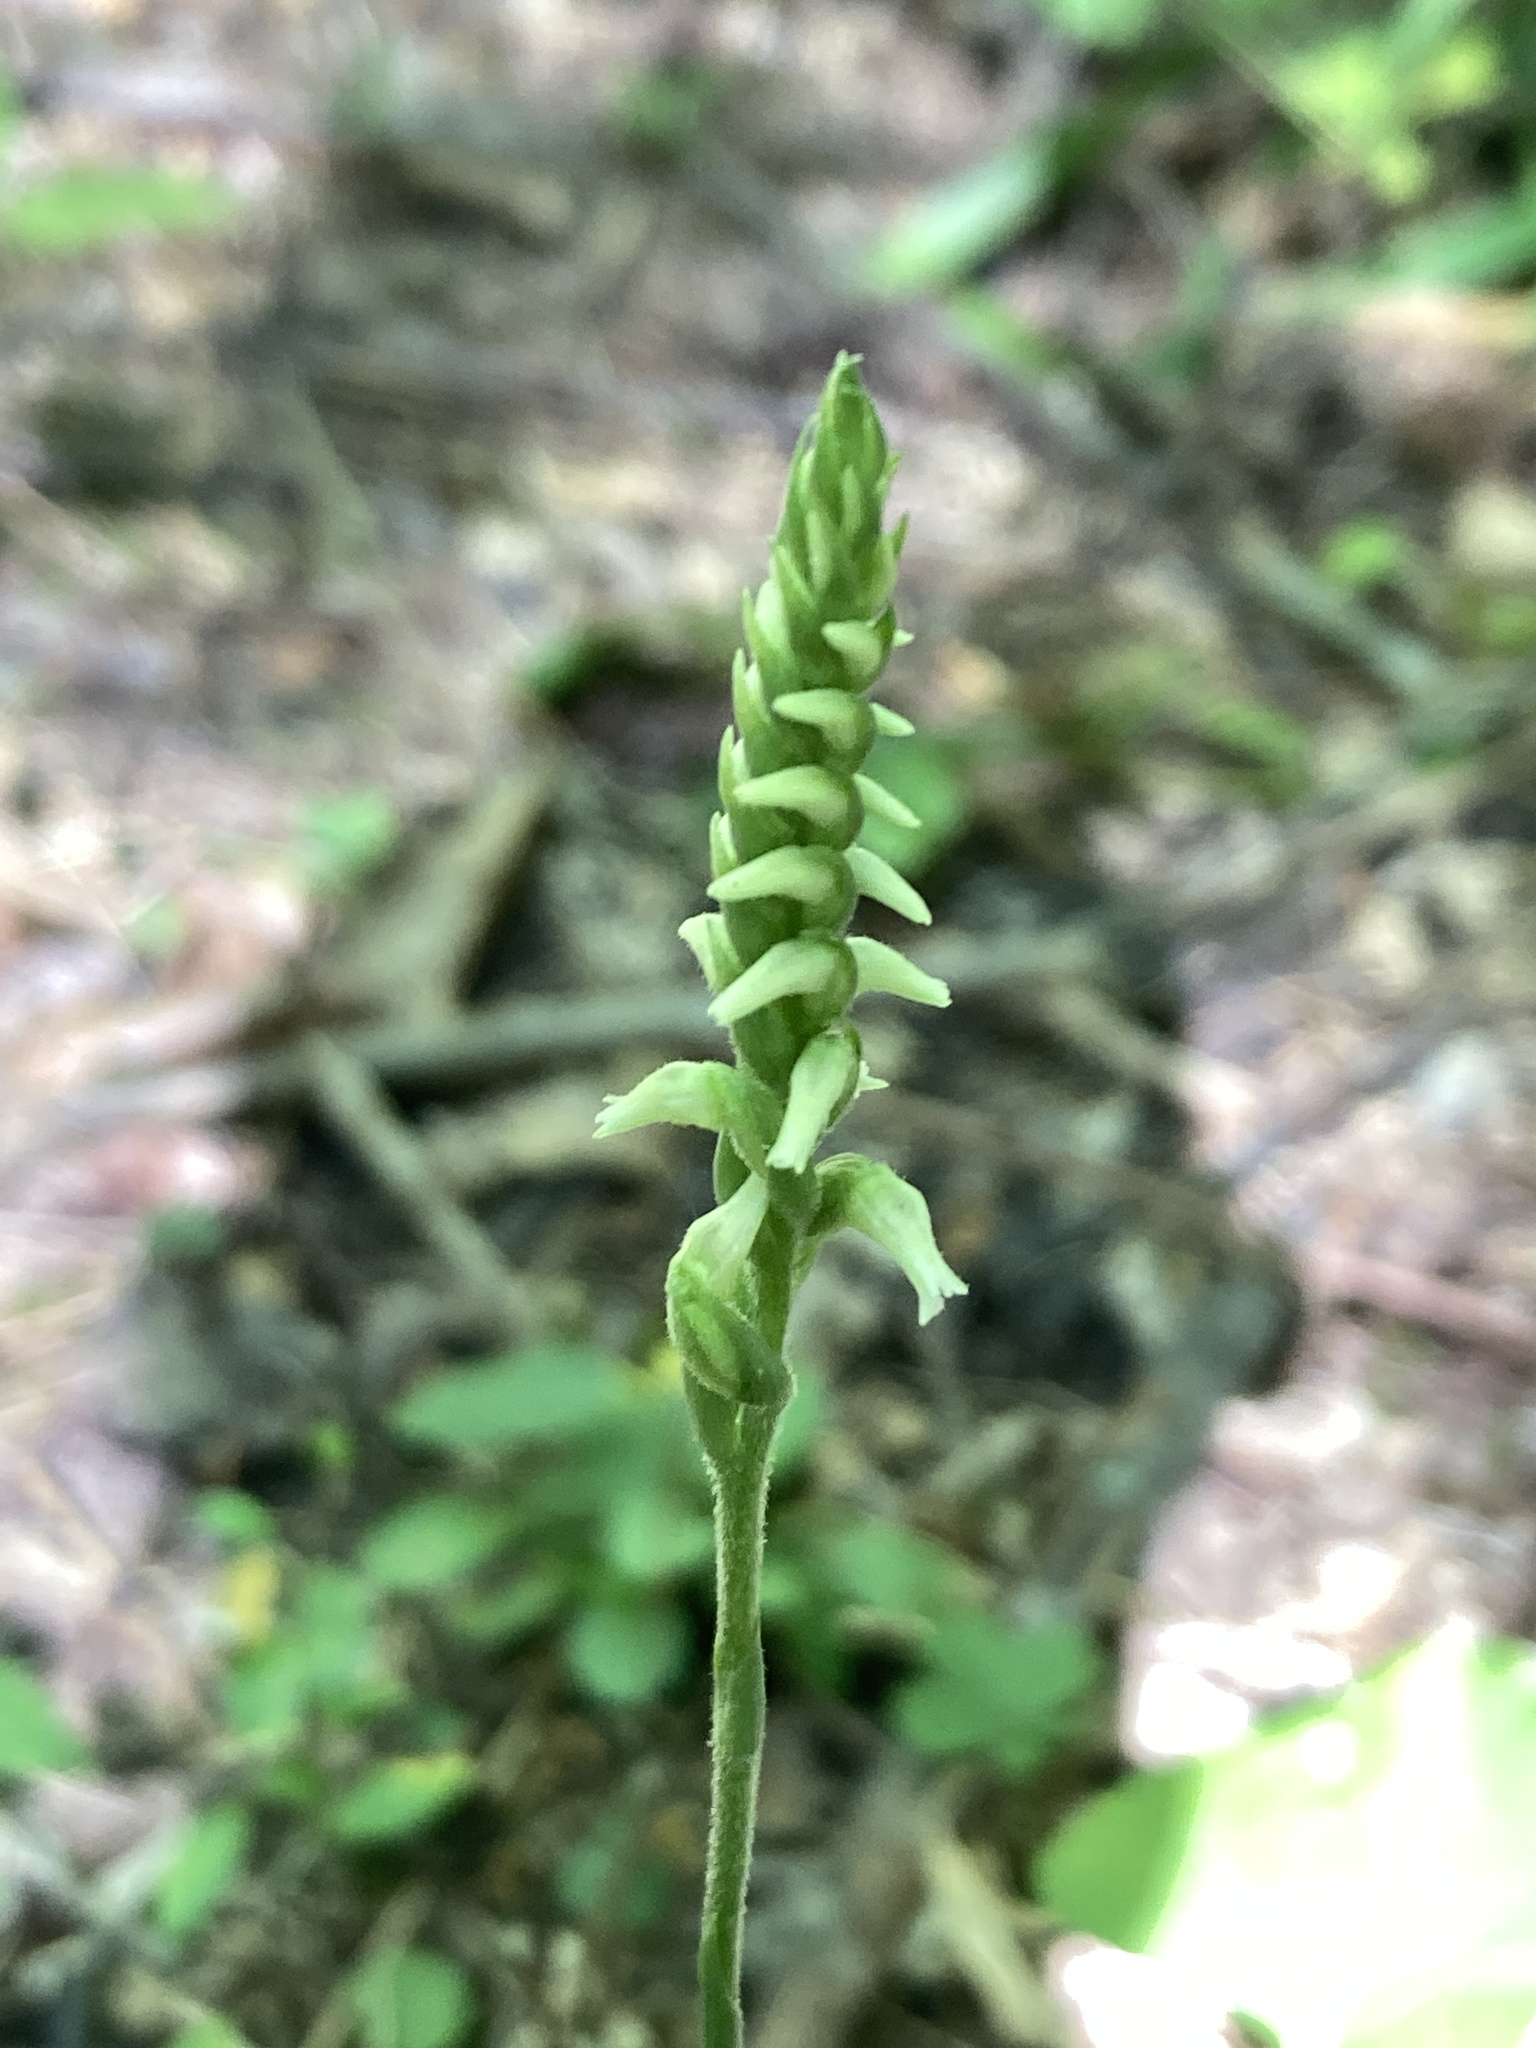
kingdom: Plantae
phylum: Tracheophyta
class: Liliopsida
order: Asparagales
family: Orchidaceae
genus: Spiranthes
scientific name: Spiranthes ovalis
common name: October ladies'-tresses
